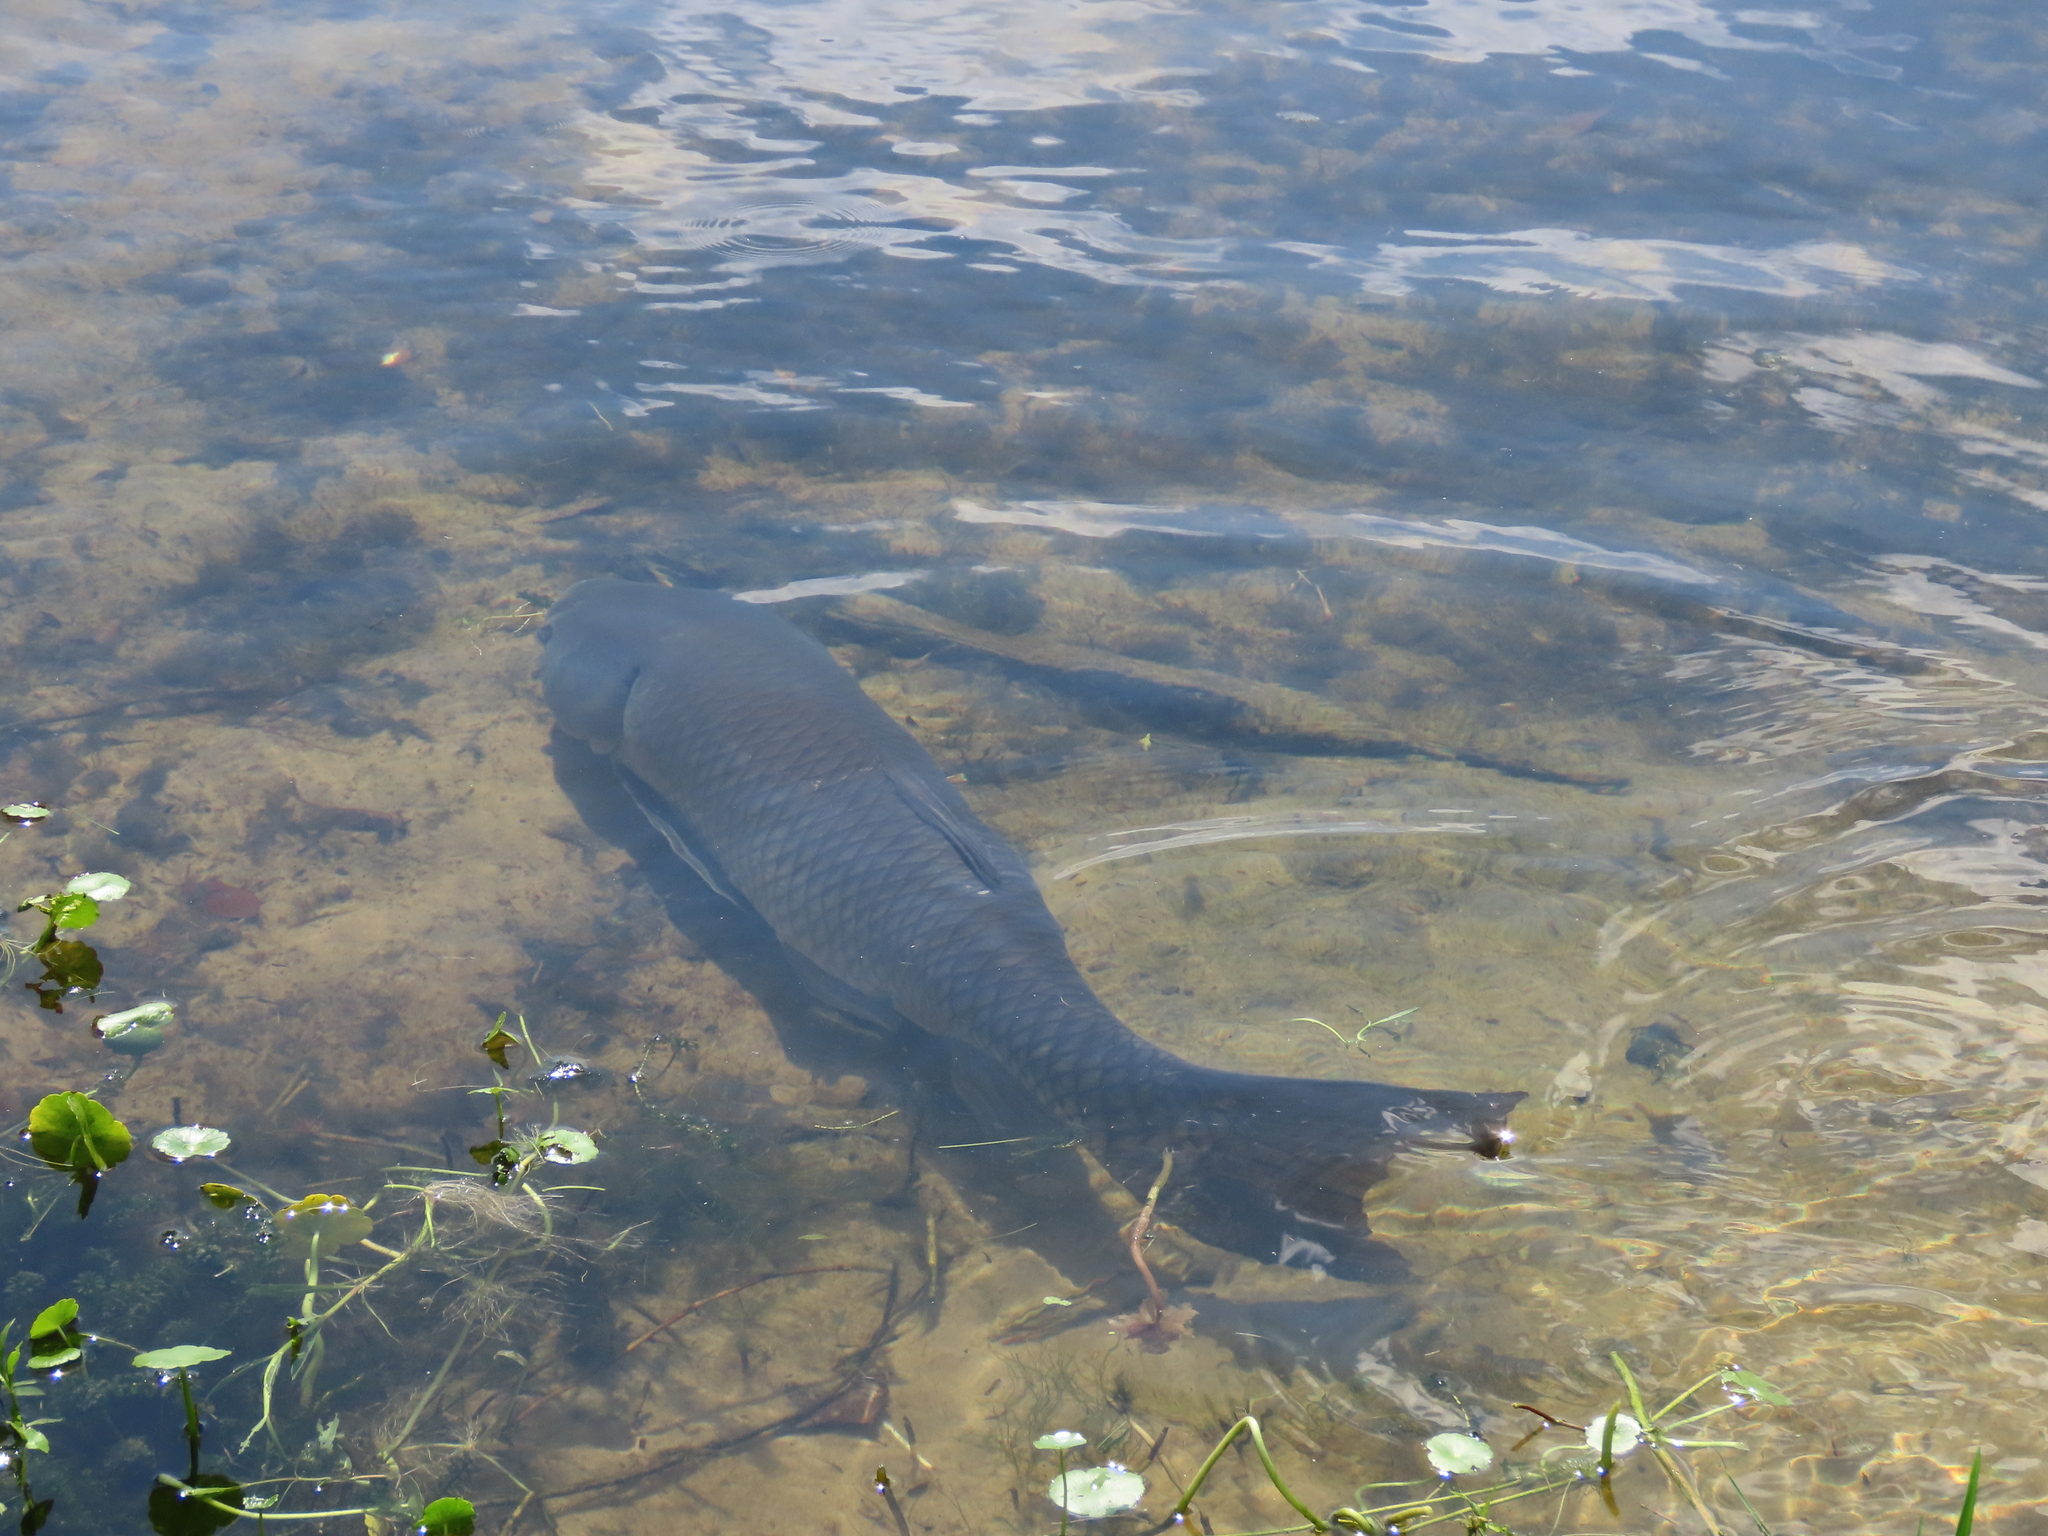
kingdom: Animalia
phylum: Chordata
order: Cypriniformes
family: Cyprinidae
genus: Ctenopharyngodon
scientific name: Ctenopharyngodon idella
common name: Grass carp
